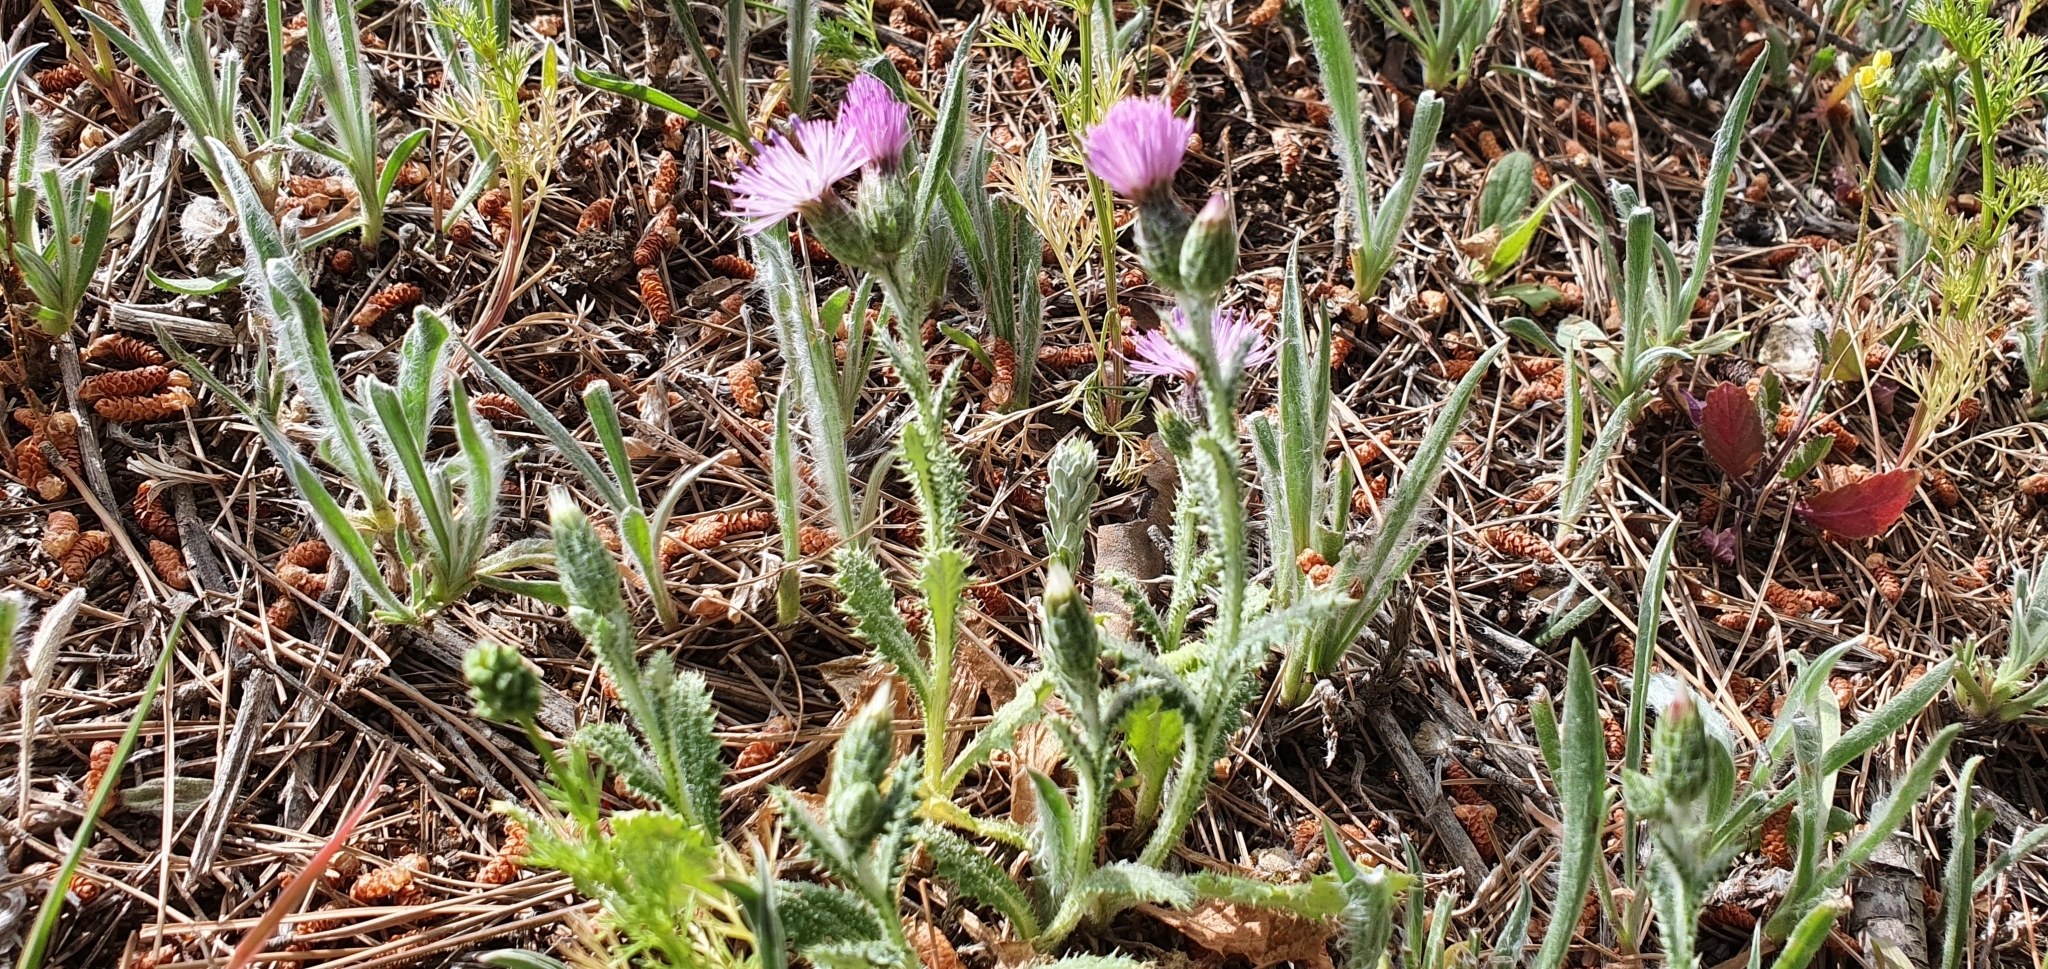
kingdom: Plantae
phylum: Tracheophyta
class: Magnoliopsida
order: Asterales
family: Asteraceae
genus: Carduus
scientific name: Carduus spachianus
